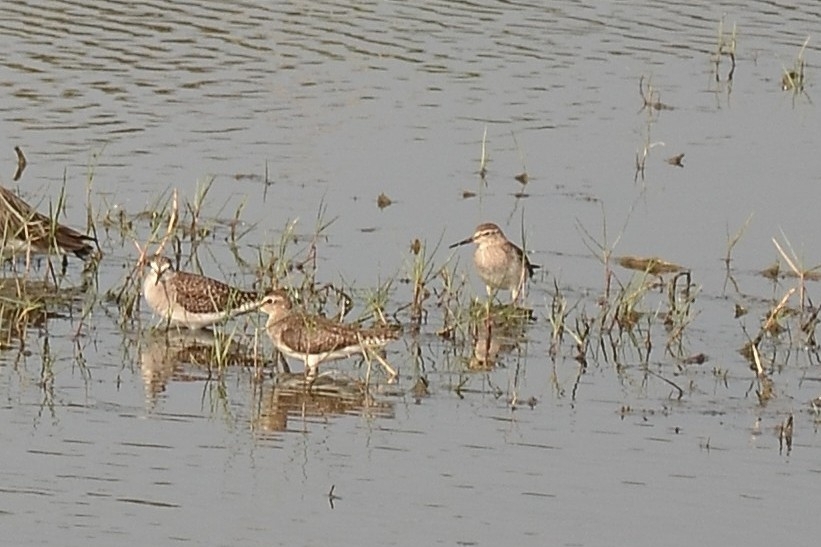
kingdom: Animalia
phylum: Chordata
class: Aves
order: Charadriiformes
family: Scolopacidae
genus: Tringa
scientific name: Tringa glareola
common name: Wood sandpiper
